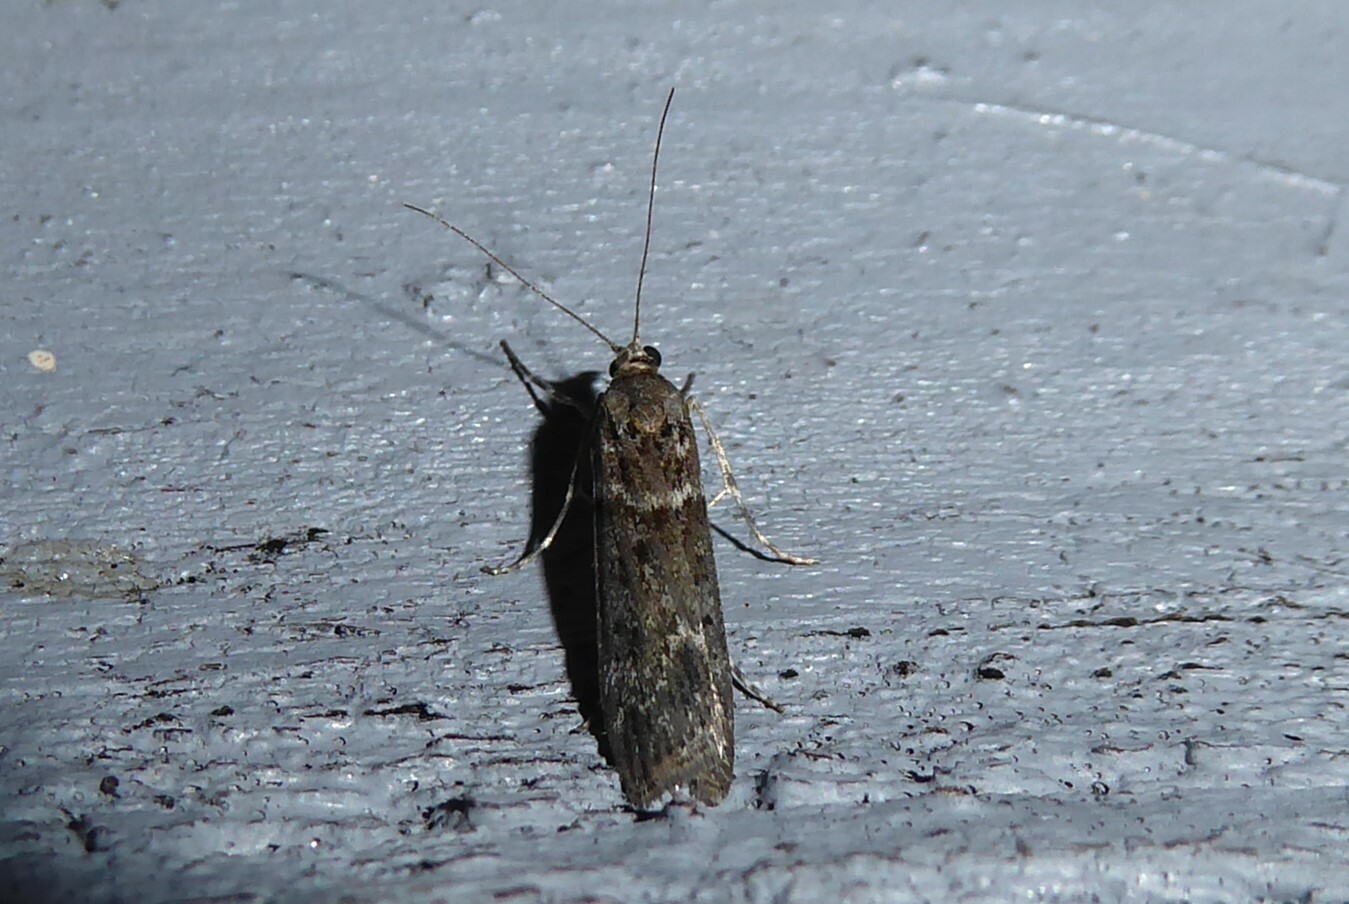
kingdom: Animalia
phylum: Arthropoda
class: Insecta
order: Lepidoptera
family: Crambidae
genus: Eudonia
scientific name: Eudonia leptalea
